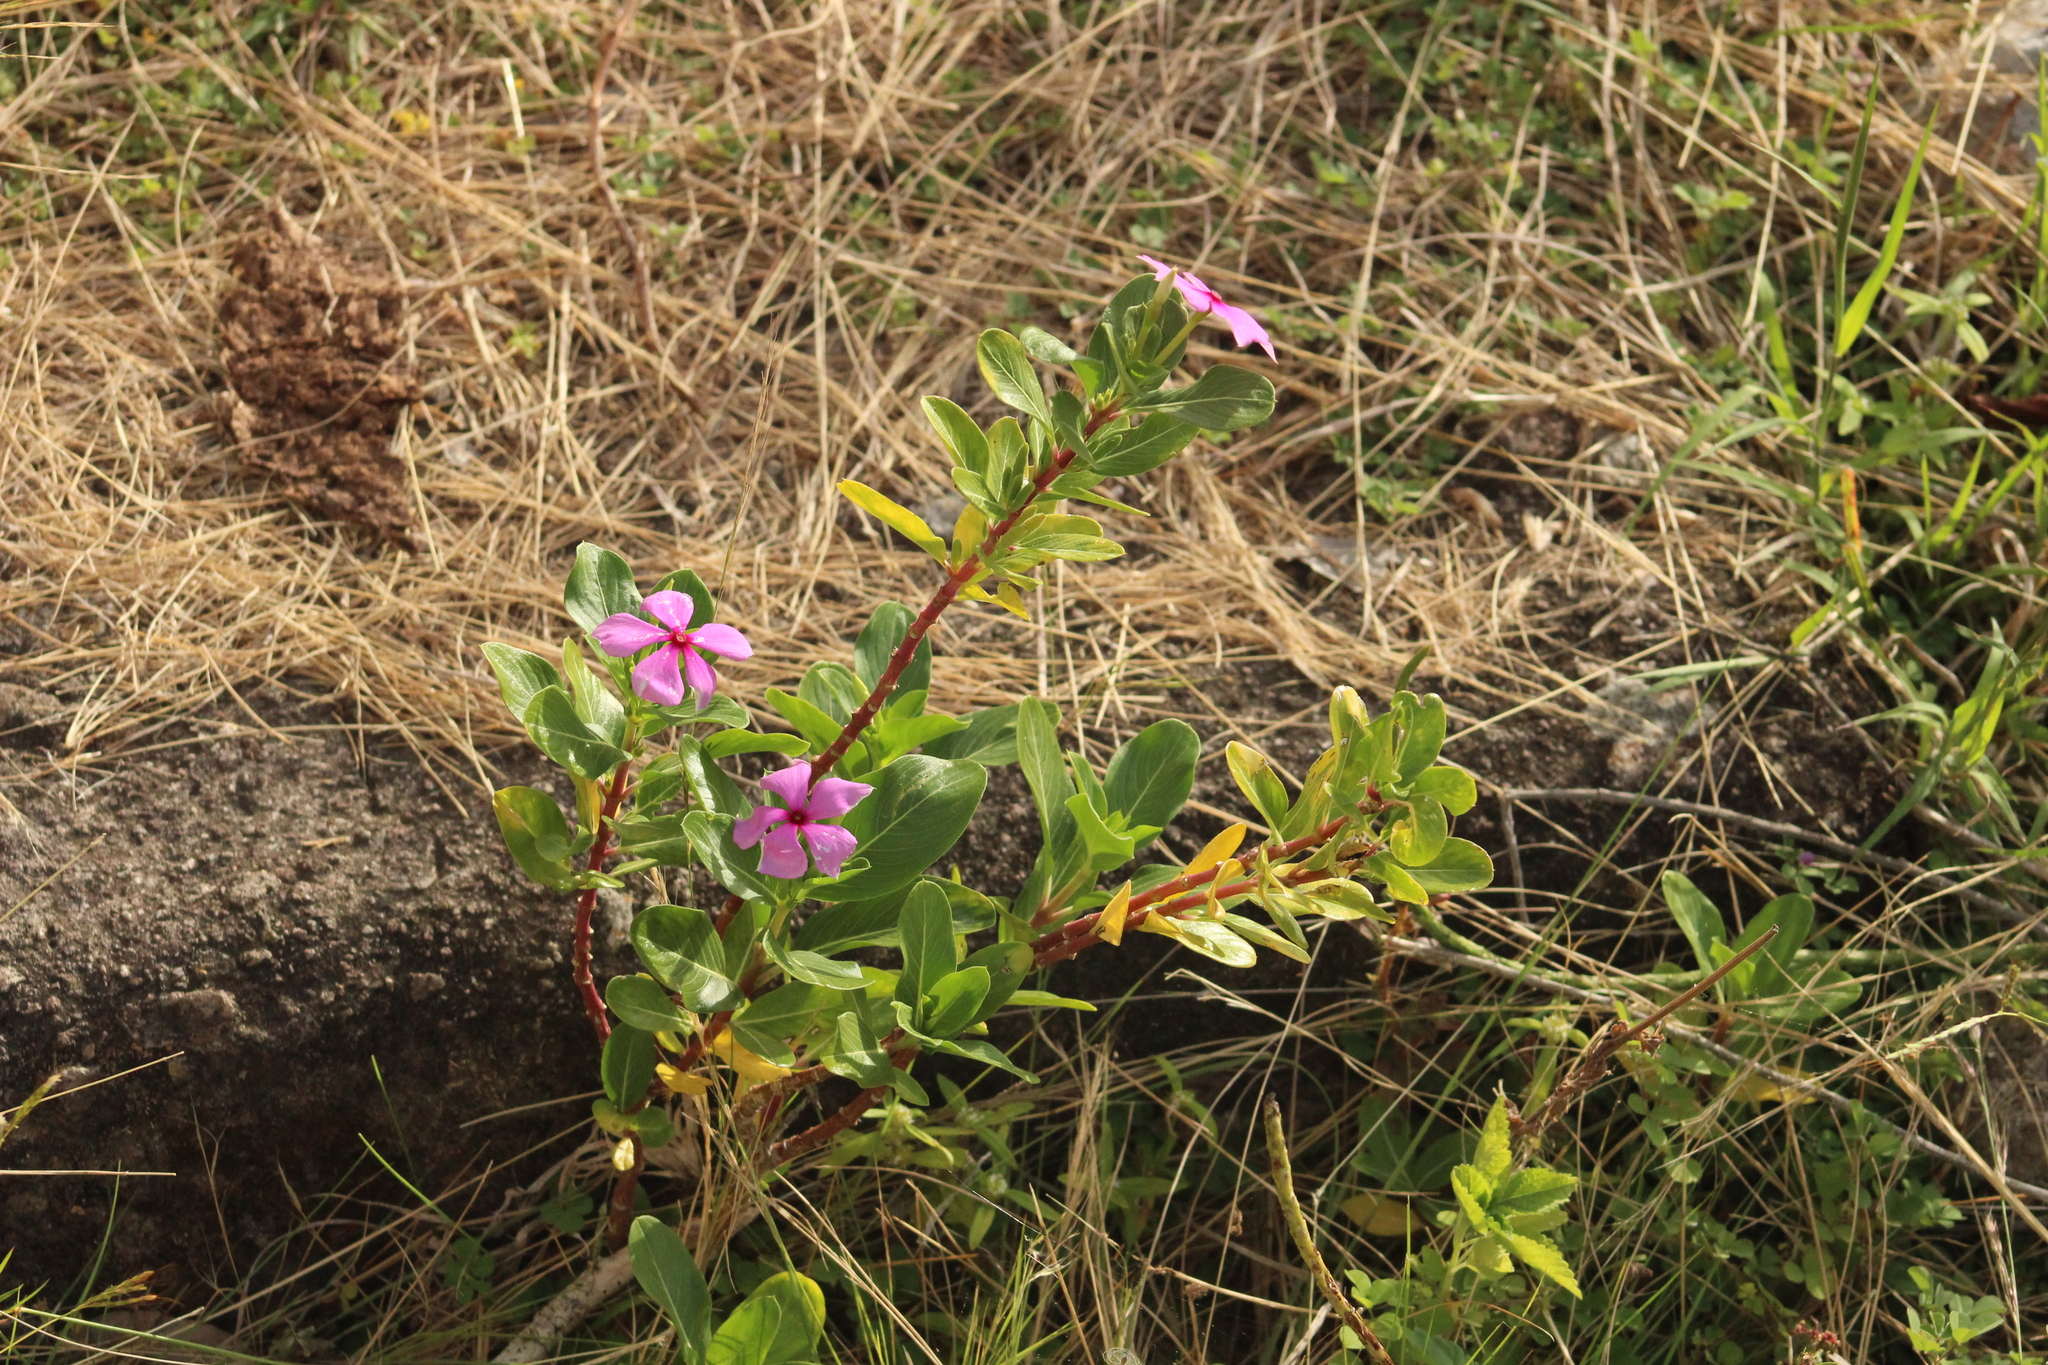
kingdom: Plantae
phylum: Tracheophyta
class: Magnoliopsida
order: Gentianales
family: Apocynaceae
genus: Catharanthus
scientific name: Catharanthus roseus
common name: Madagascar periwinkle
